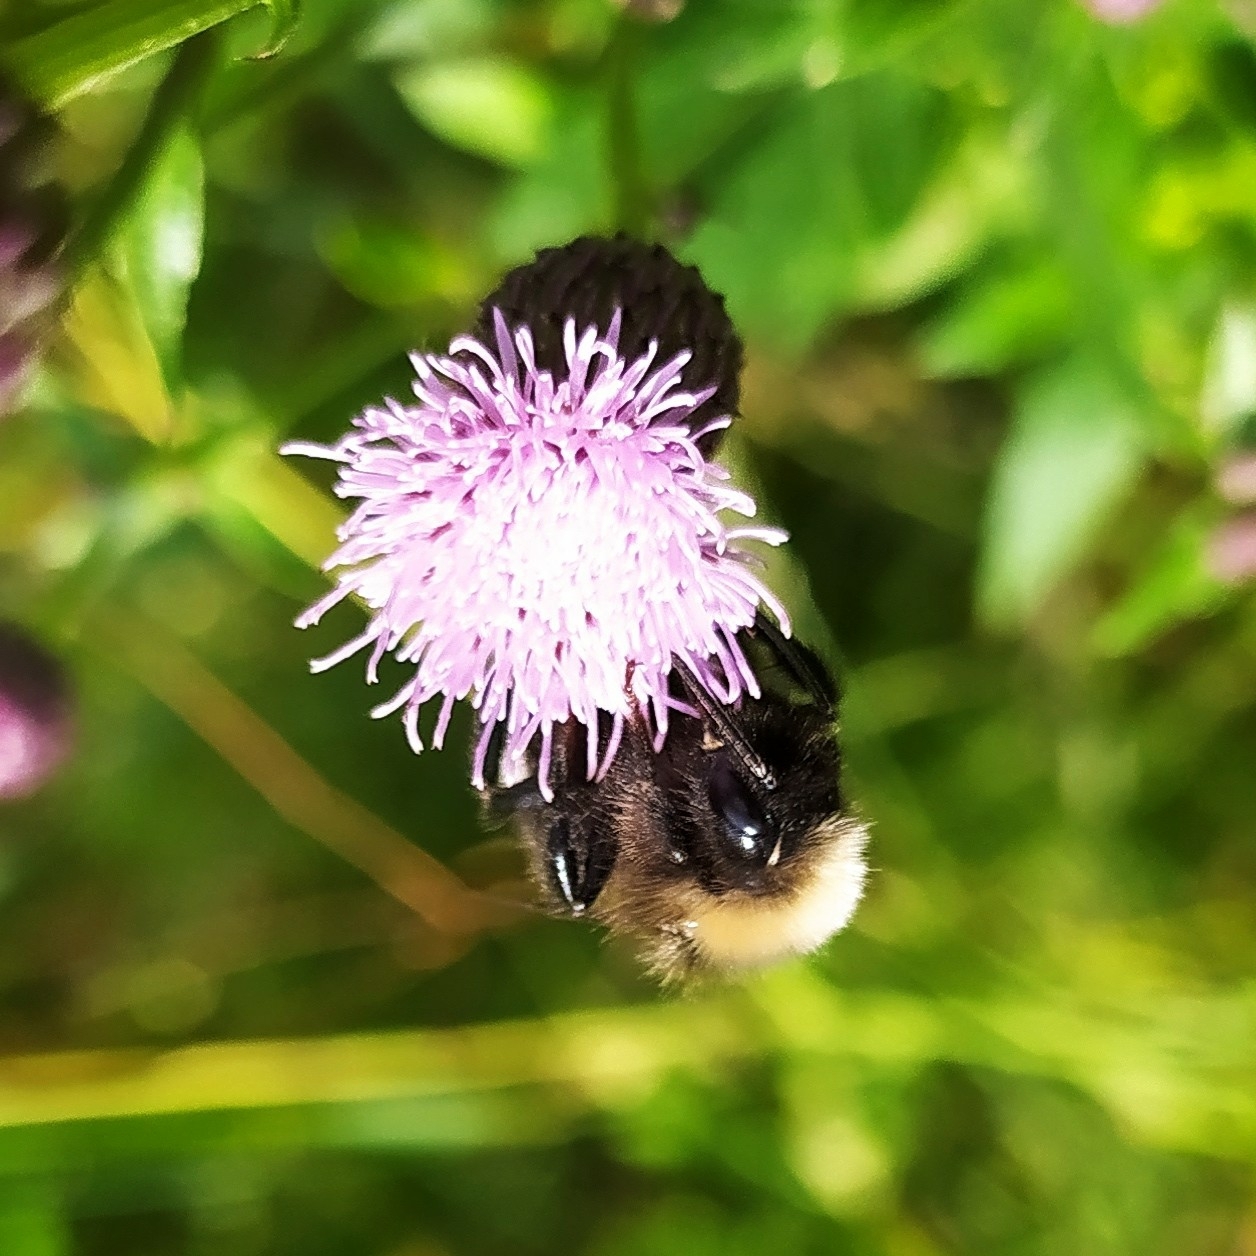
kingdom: Animalia
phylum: Arthropoda
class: Insecta
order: Hymenoptera
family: Apidae
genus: Bombus
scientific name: Bombus
